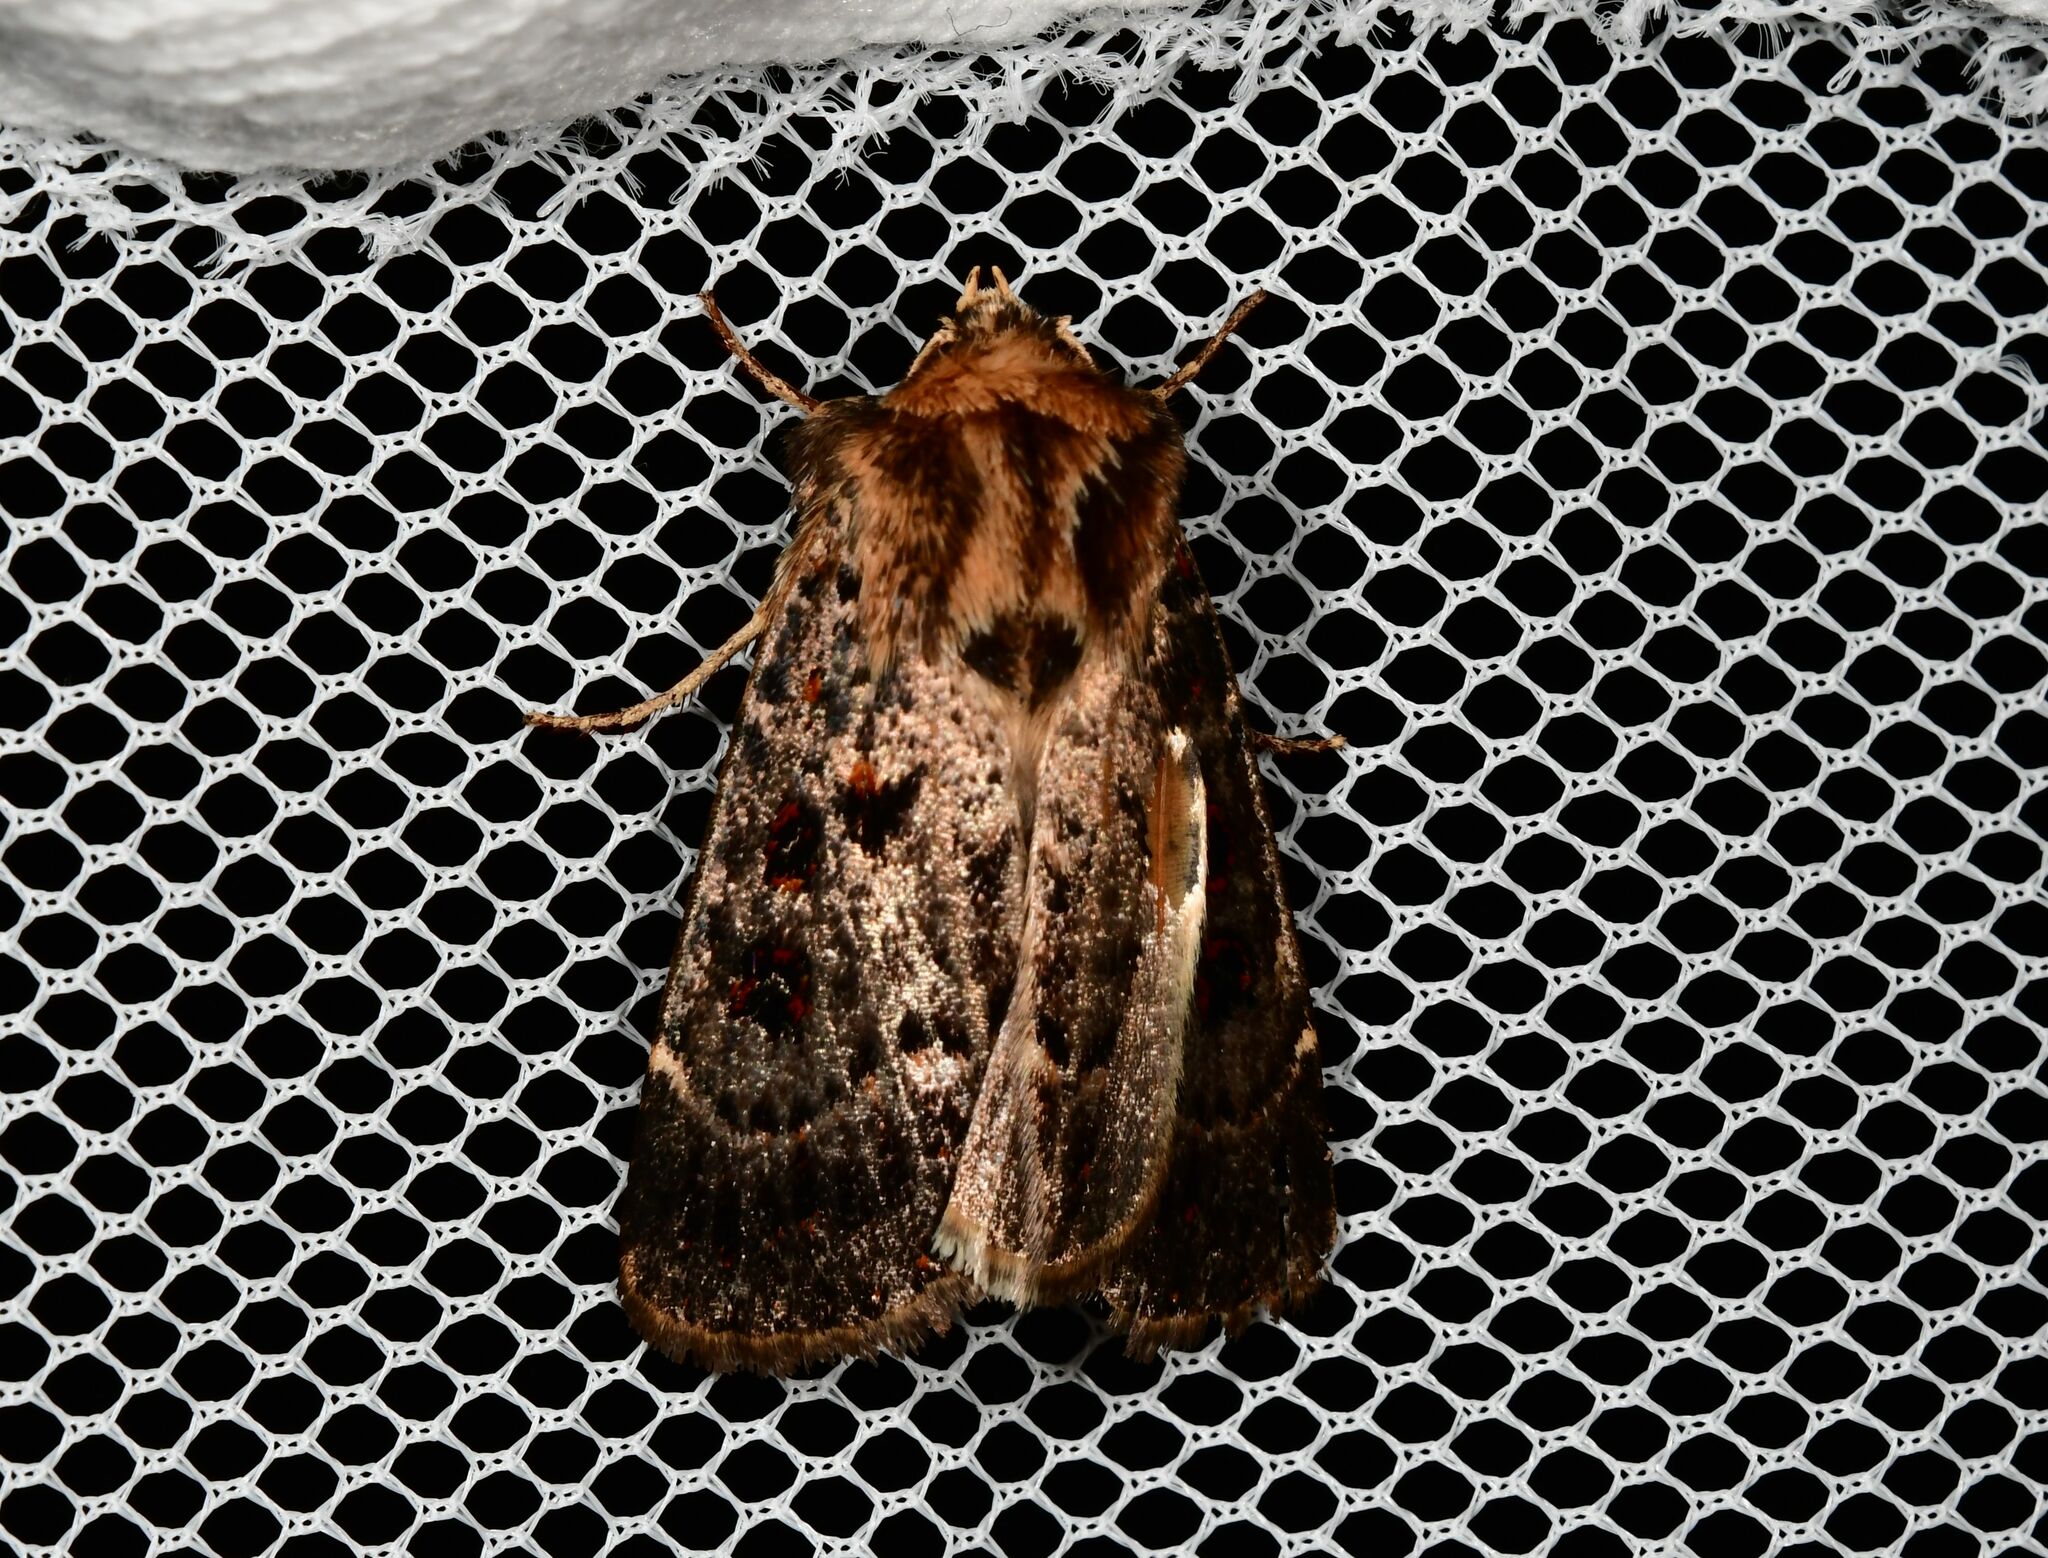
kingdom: Animalia
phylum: Arthropoda
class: Insecta
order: Lepidoptera
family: Noctuidae
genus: Proteuxoa
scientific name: Proteuxoa sanguinipuncta
